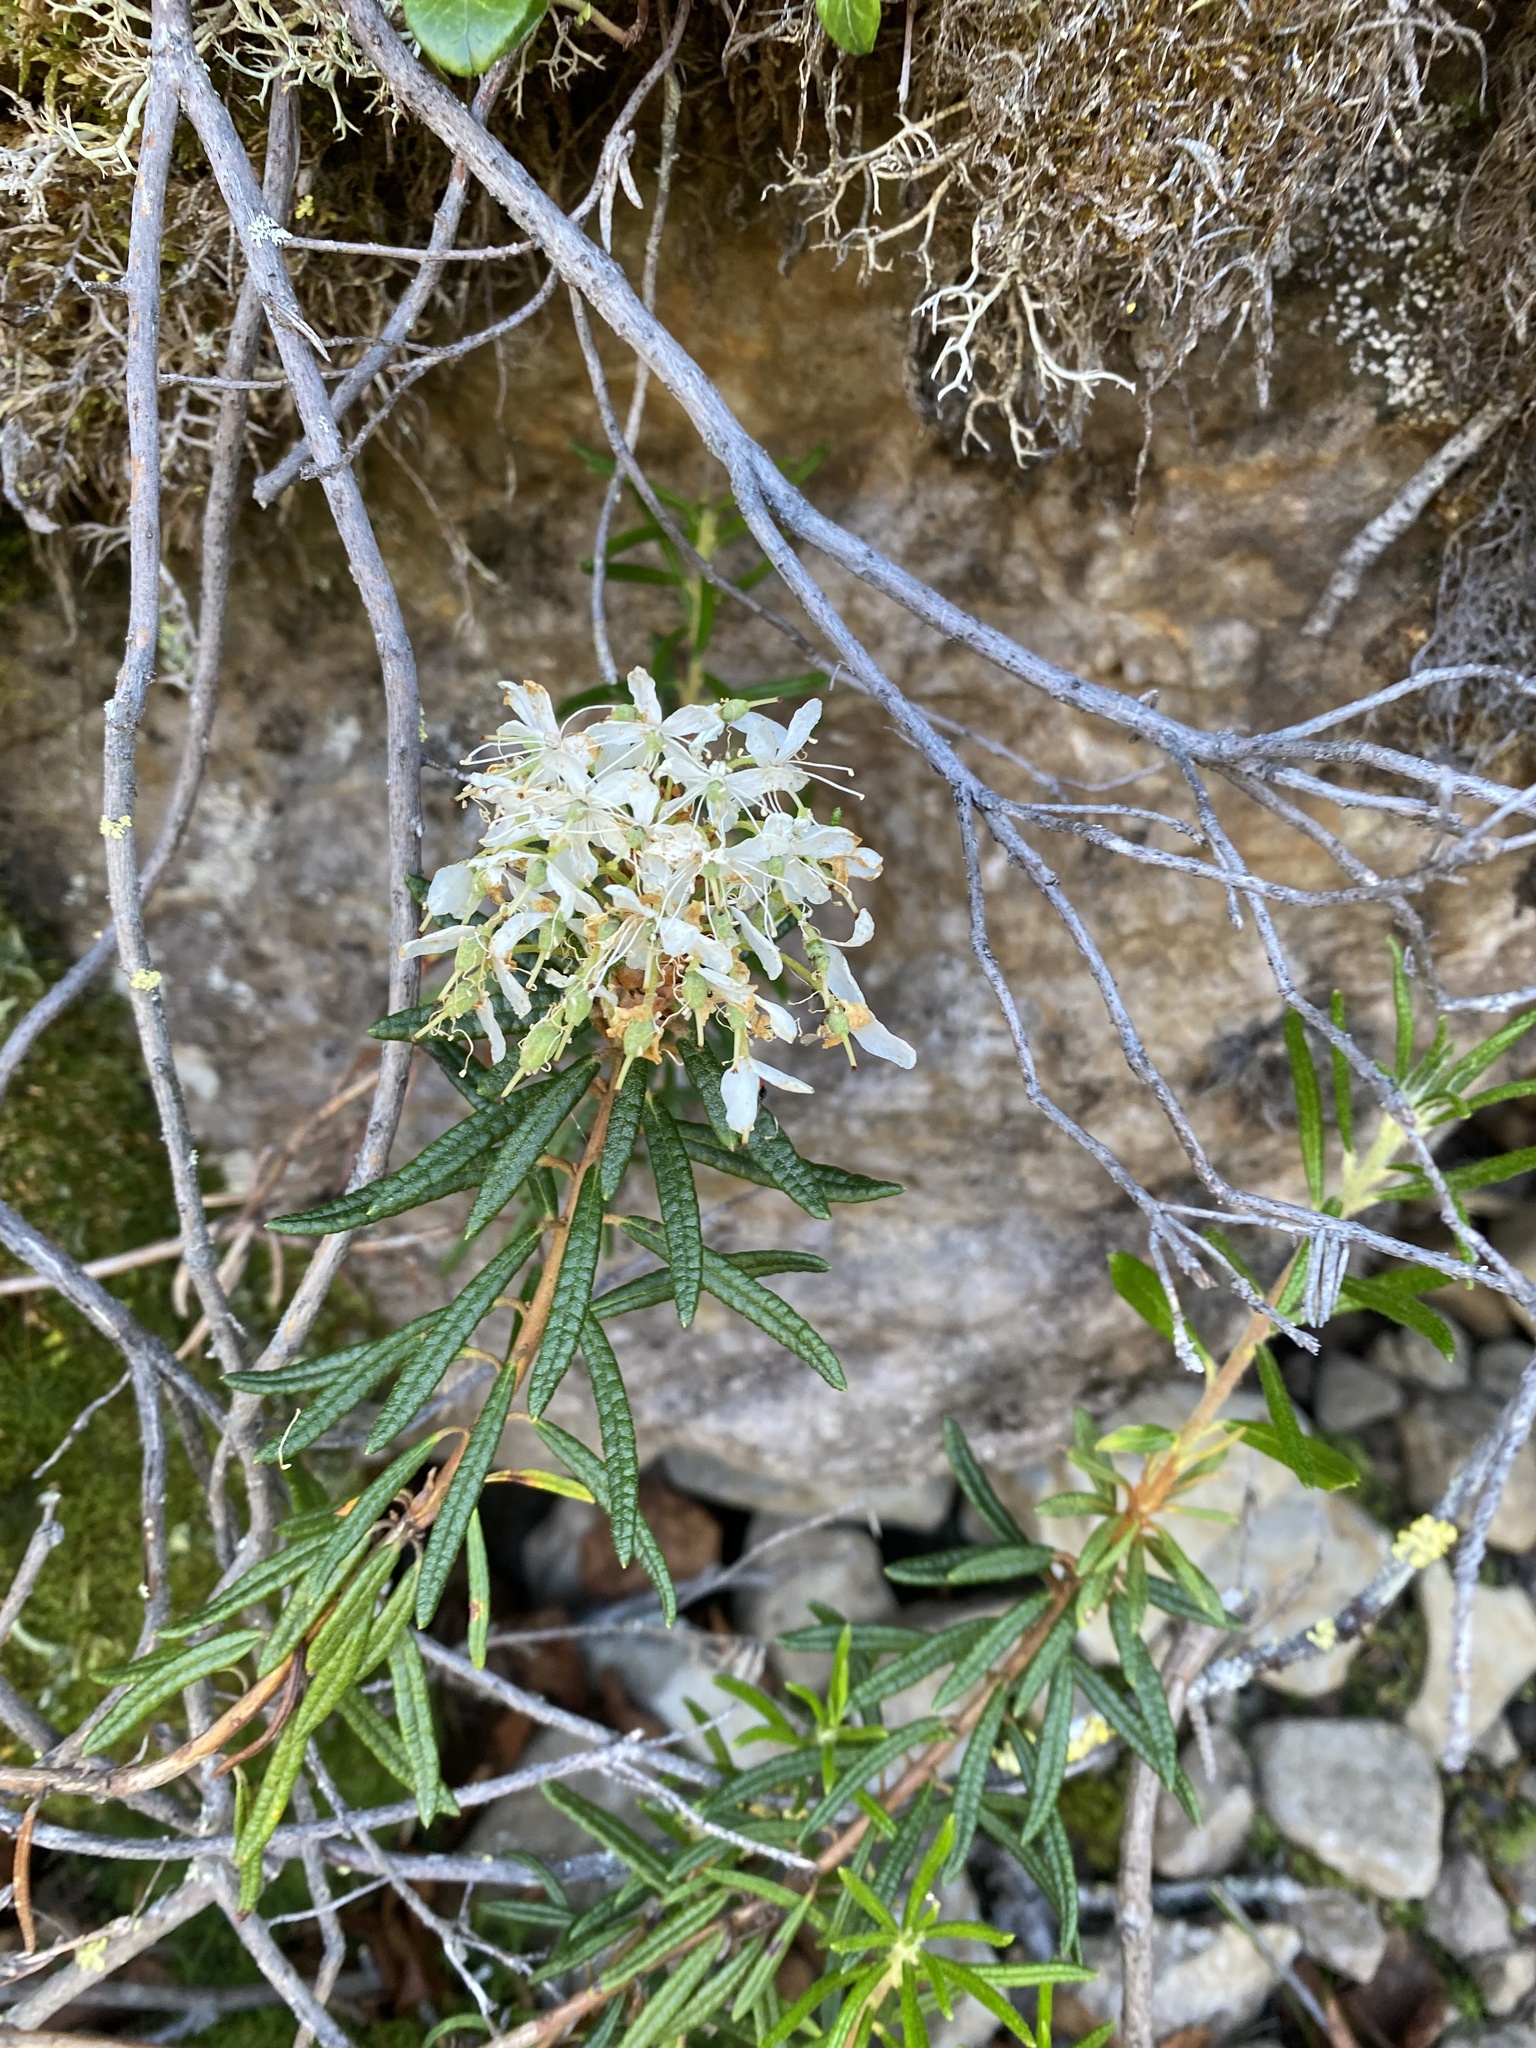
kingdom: Plantae
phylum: Tracheophyta
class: Magnoliopsida
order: Ericales
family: Ericaceae
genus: Rhododendron
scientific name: Rhododendron tomentosum
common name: Marsh labrador tea
